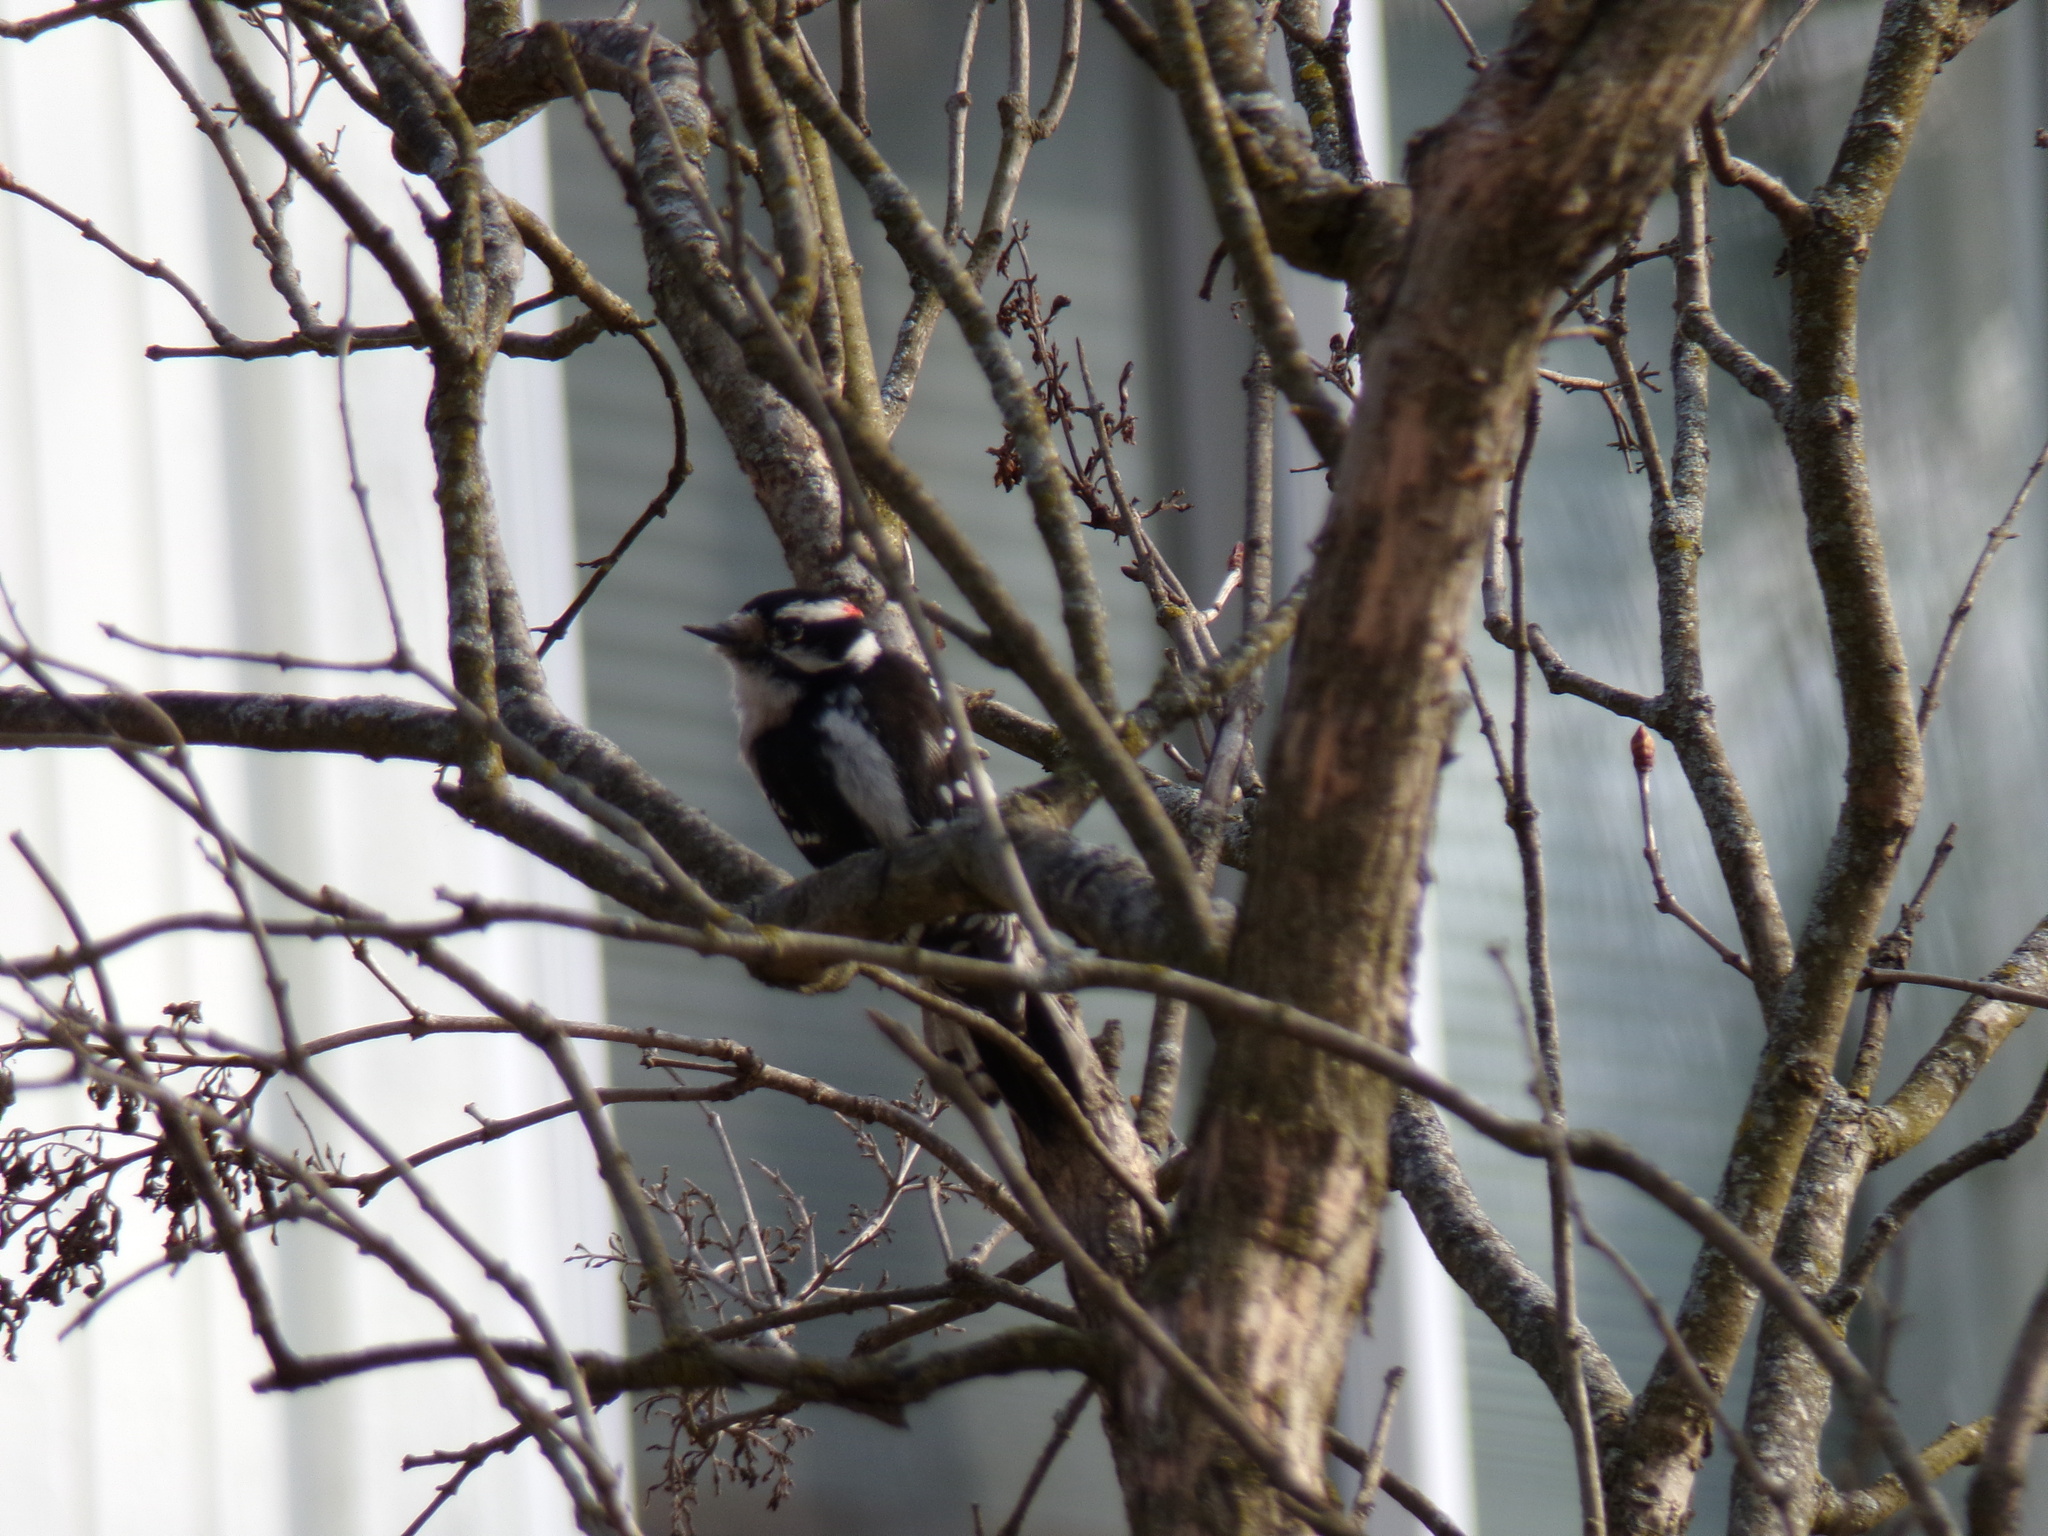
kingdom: Animalia
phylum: Chordata
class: Aves
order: Piciformes
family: Picidae
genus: Dryobates
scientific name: Dryobates pubescens
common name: Downy woodpecker
